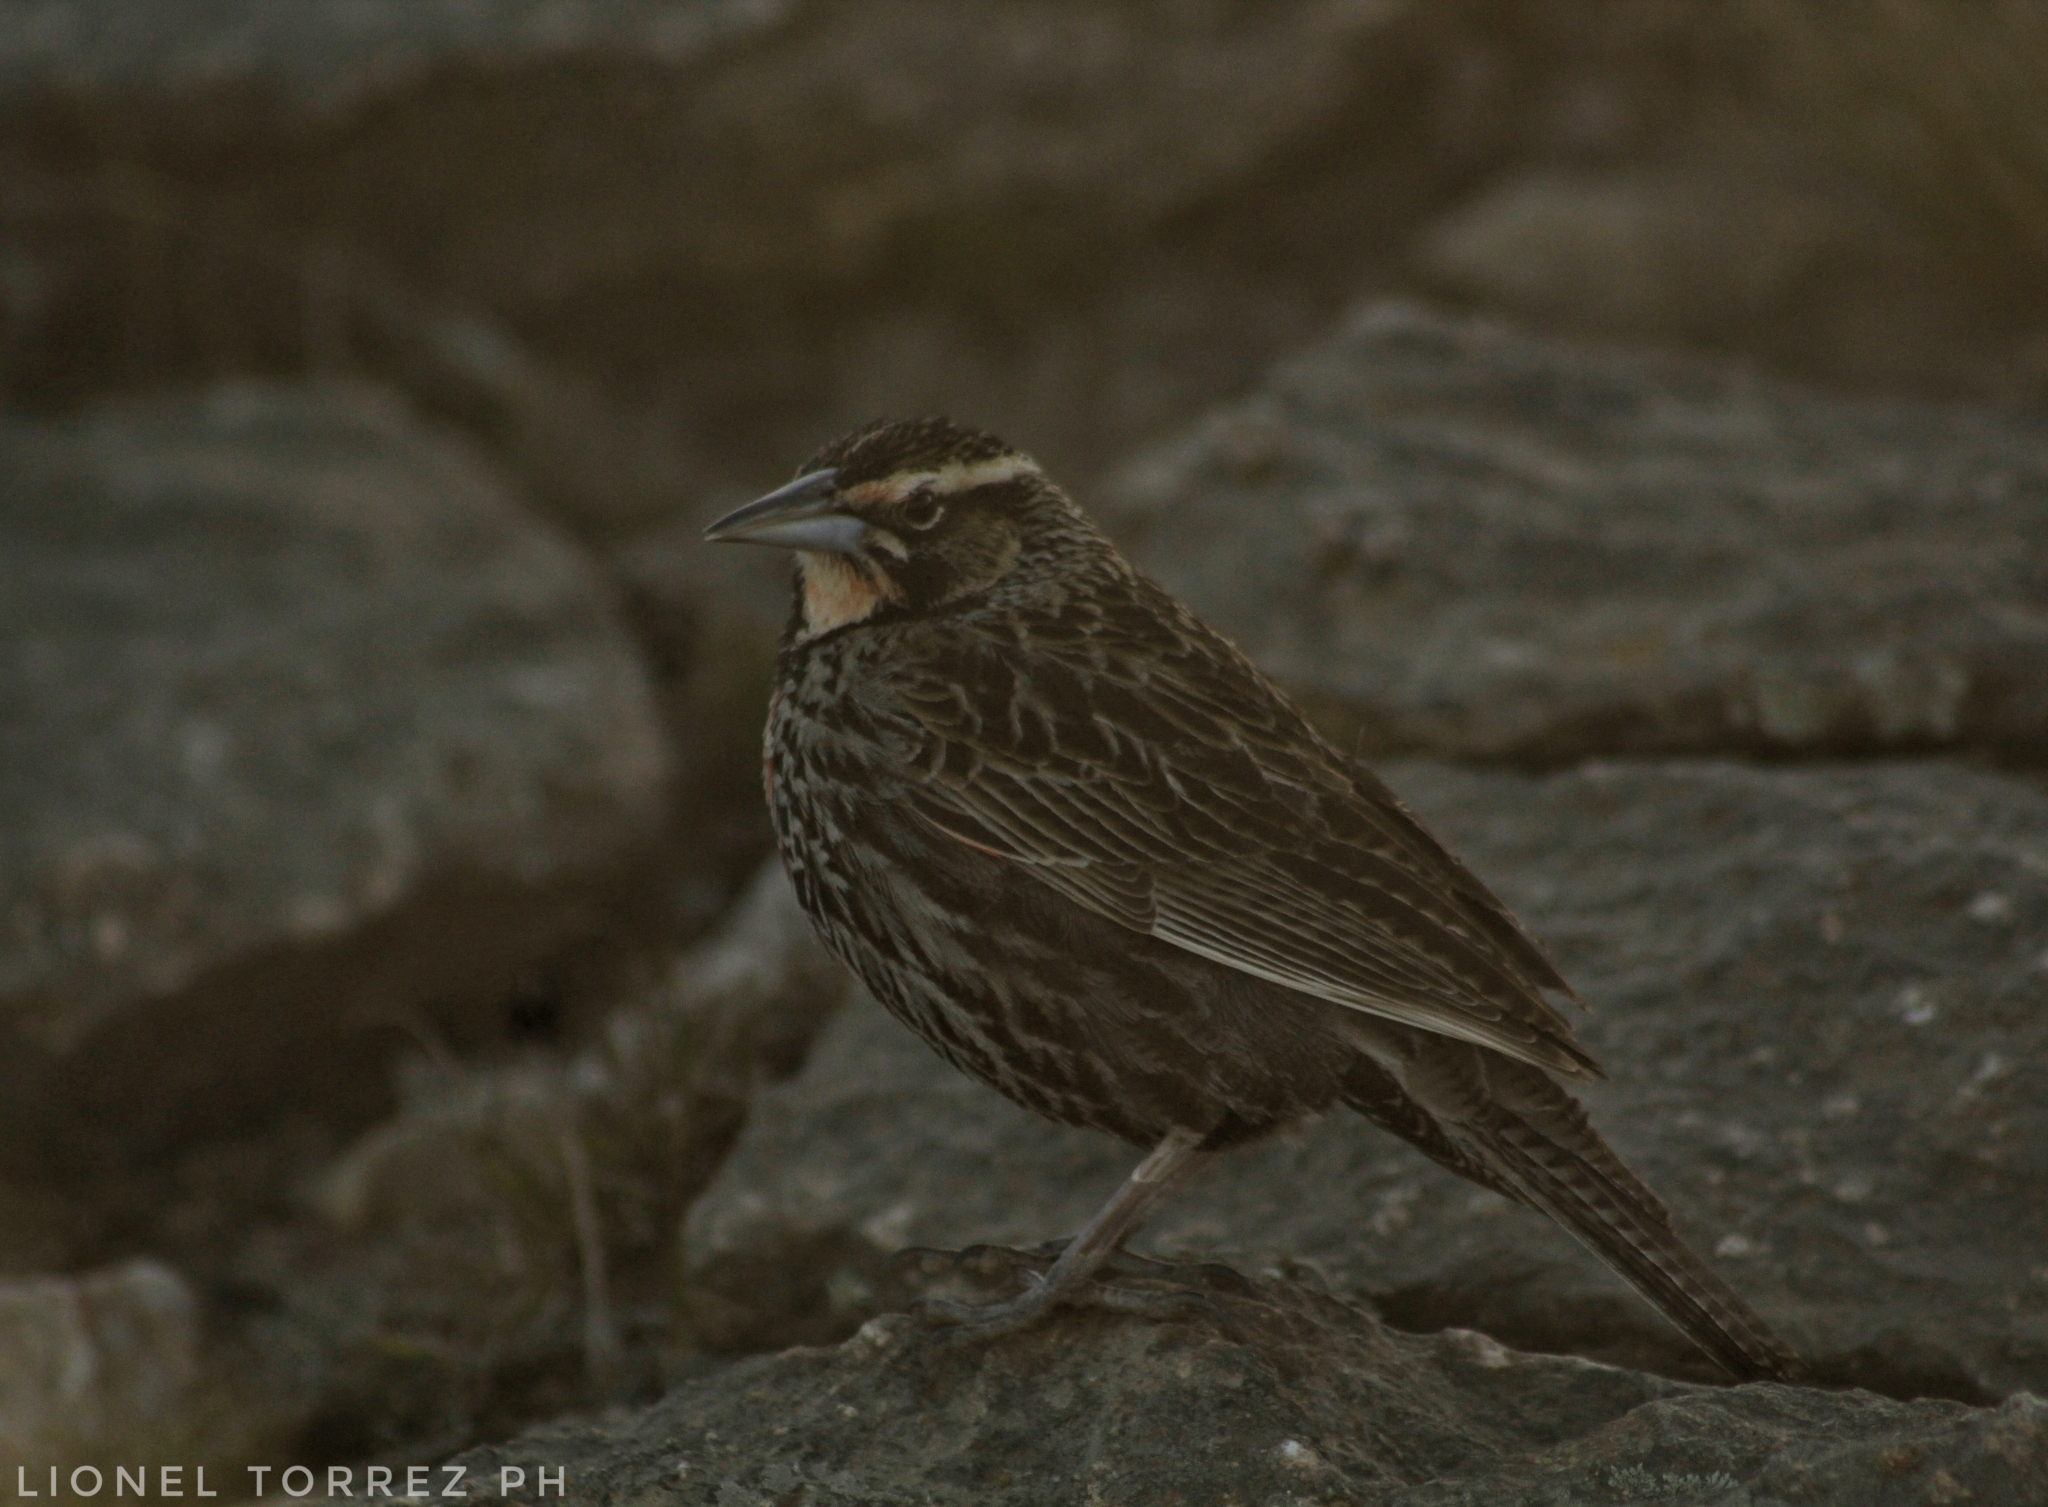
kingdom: Animalia
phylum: Chordata
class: Aves
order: Passeriformes
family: Icteridae
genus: Sturnella
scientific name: Sturnella loyca
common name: Long-tailed meadowlark
